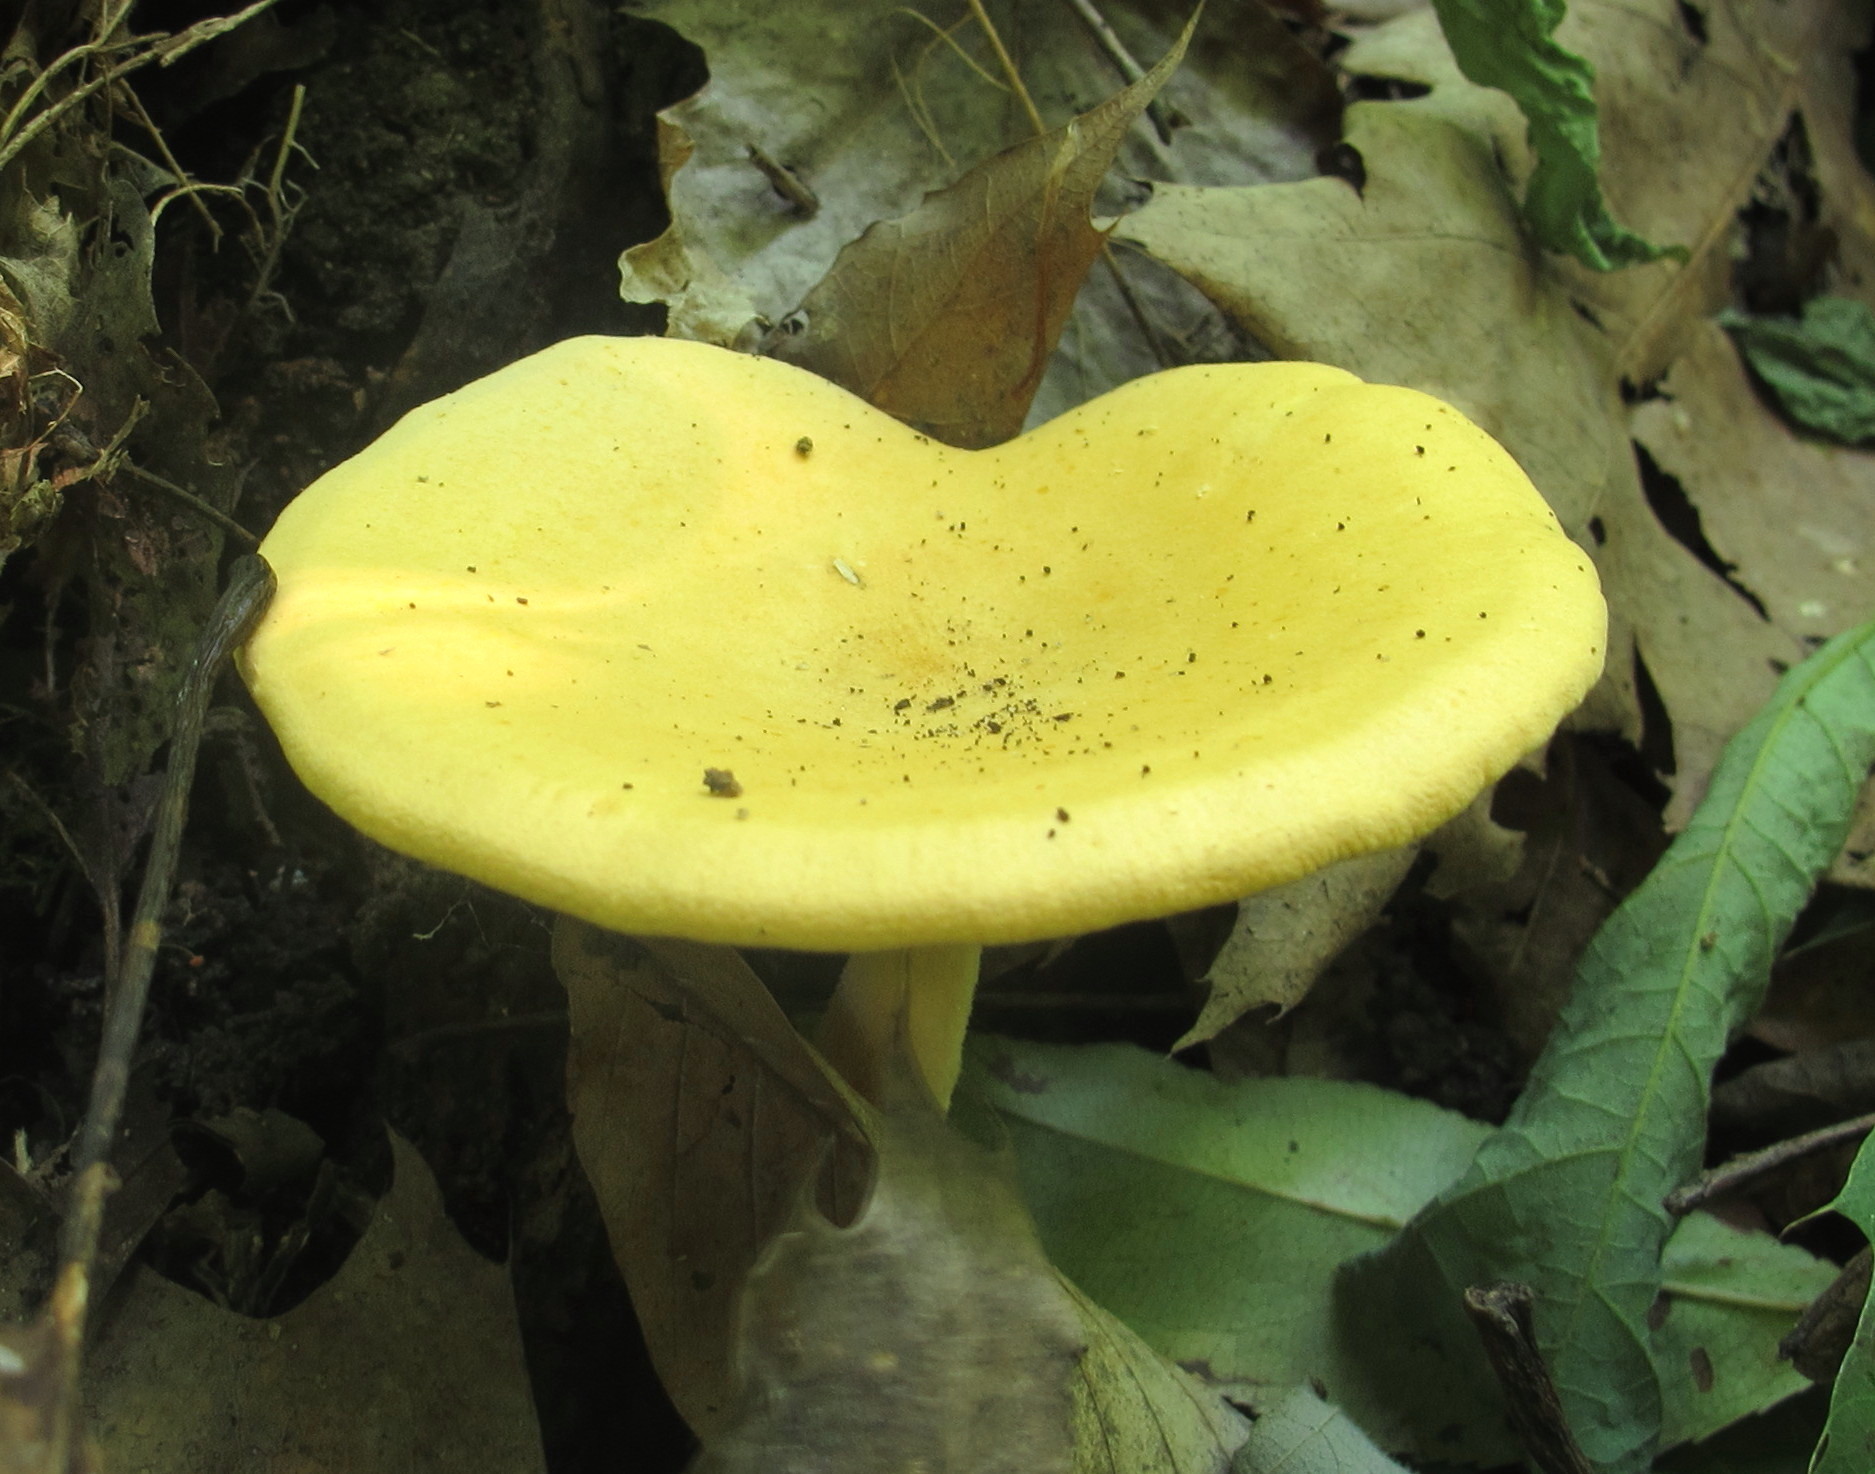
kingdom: Fungi
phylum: Basidiomycota
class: Agaricomycetes
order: Boletales
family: Hygrophoropsidaceae
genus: Hygrophoropsis
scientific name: Hygrophoropsis aurantiaca
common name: False chanterelle
